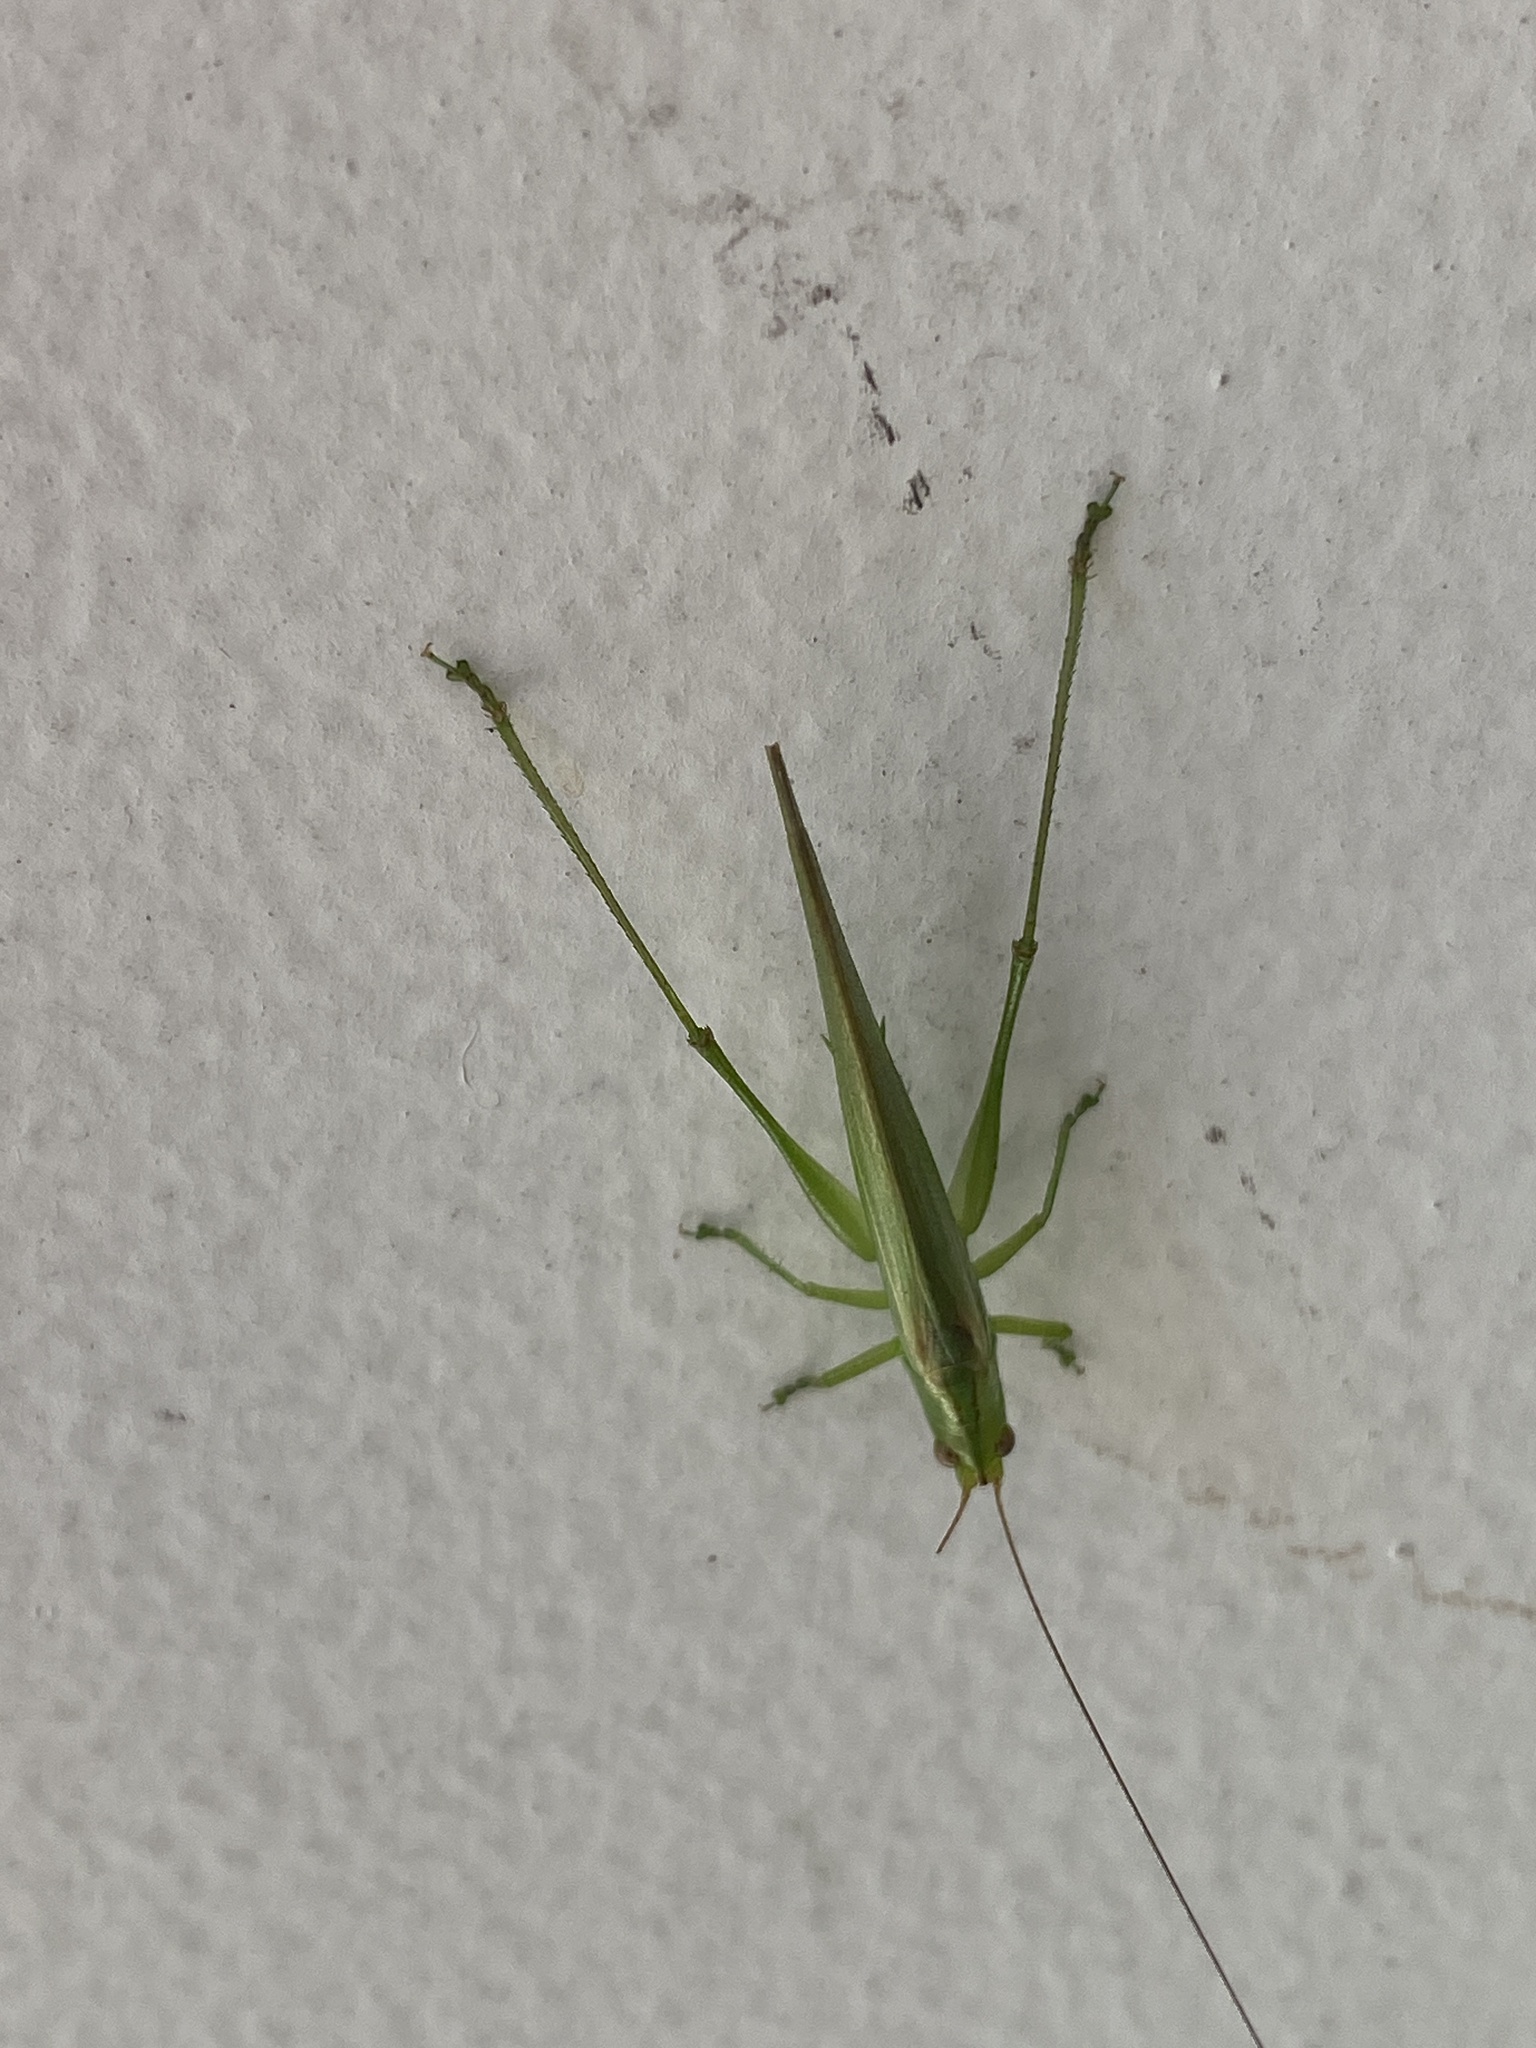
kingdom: Animalia
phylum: Arthropoda
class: Insecta
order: Orthoptera
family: Tettigoniidae
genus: Conocephalus
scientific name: Conocephalus longipes
